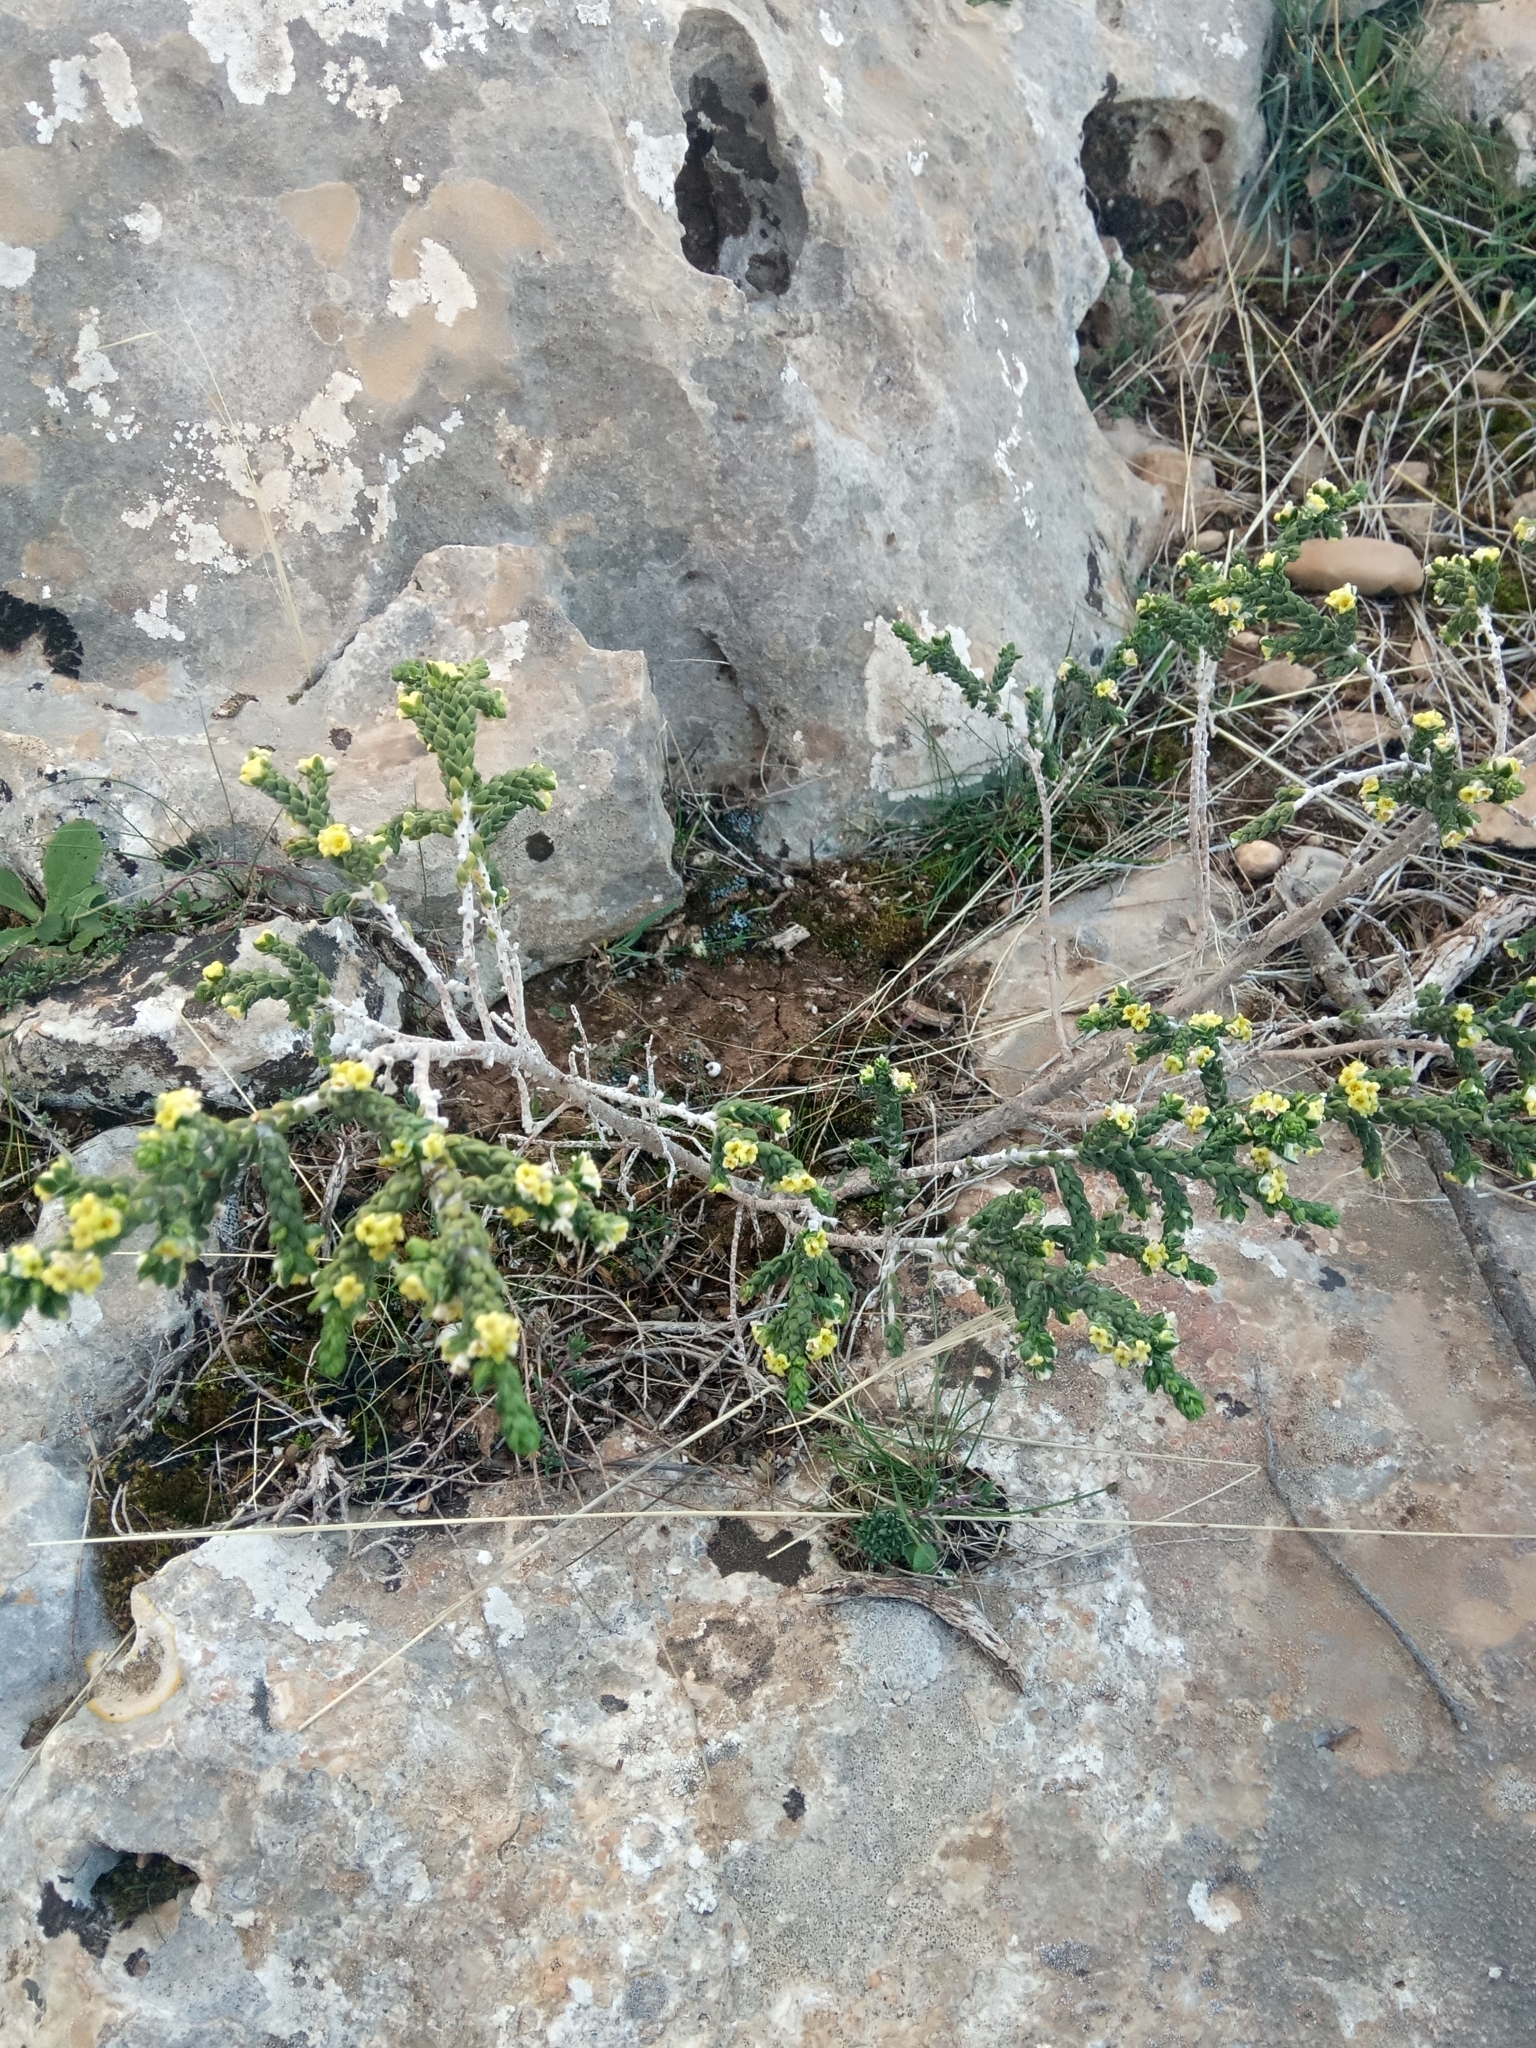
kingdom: Plantae
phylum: Tracheophyta
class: Magnoliopsida
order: Malvales
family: Thymelaeaceae
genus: Thymelaea
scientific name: Thymelaea hirsuta
